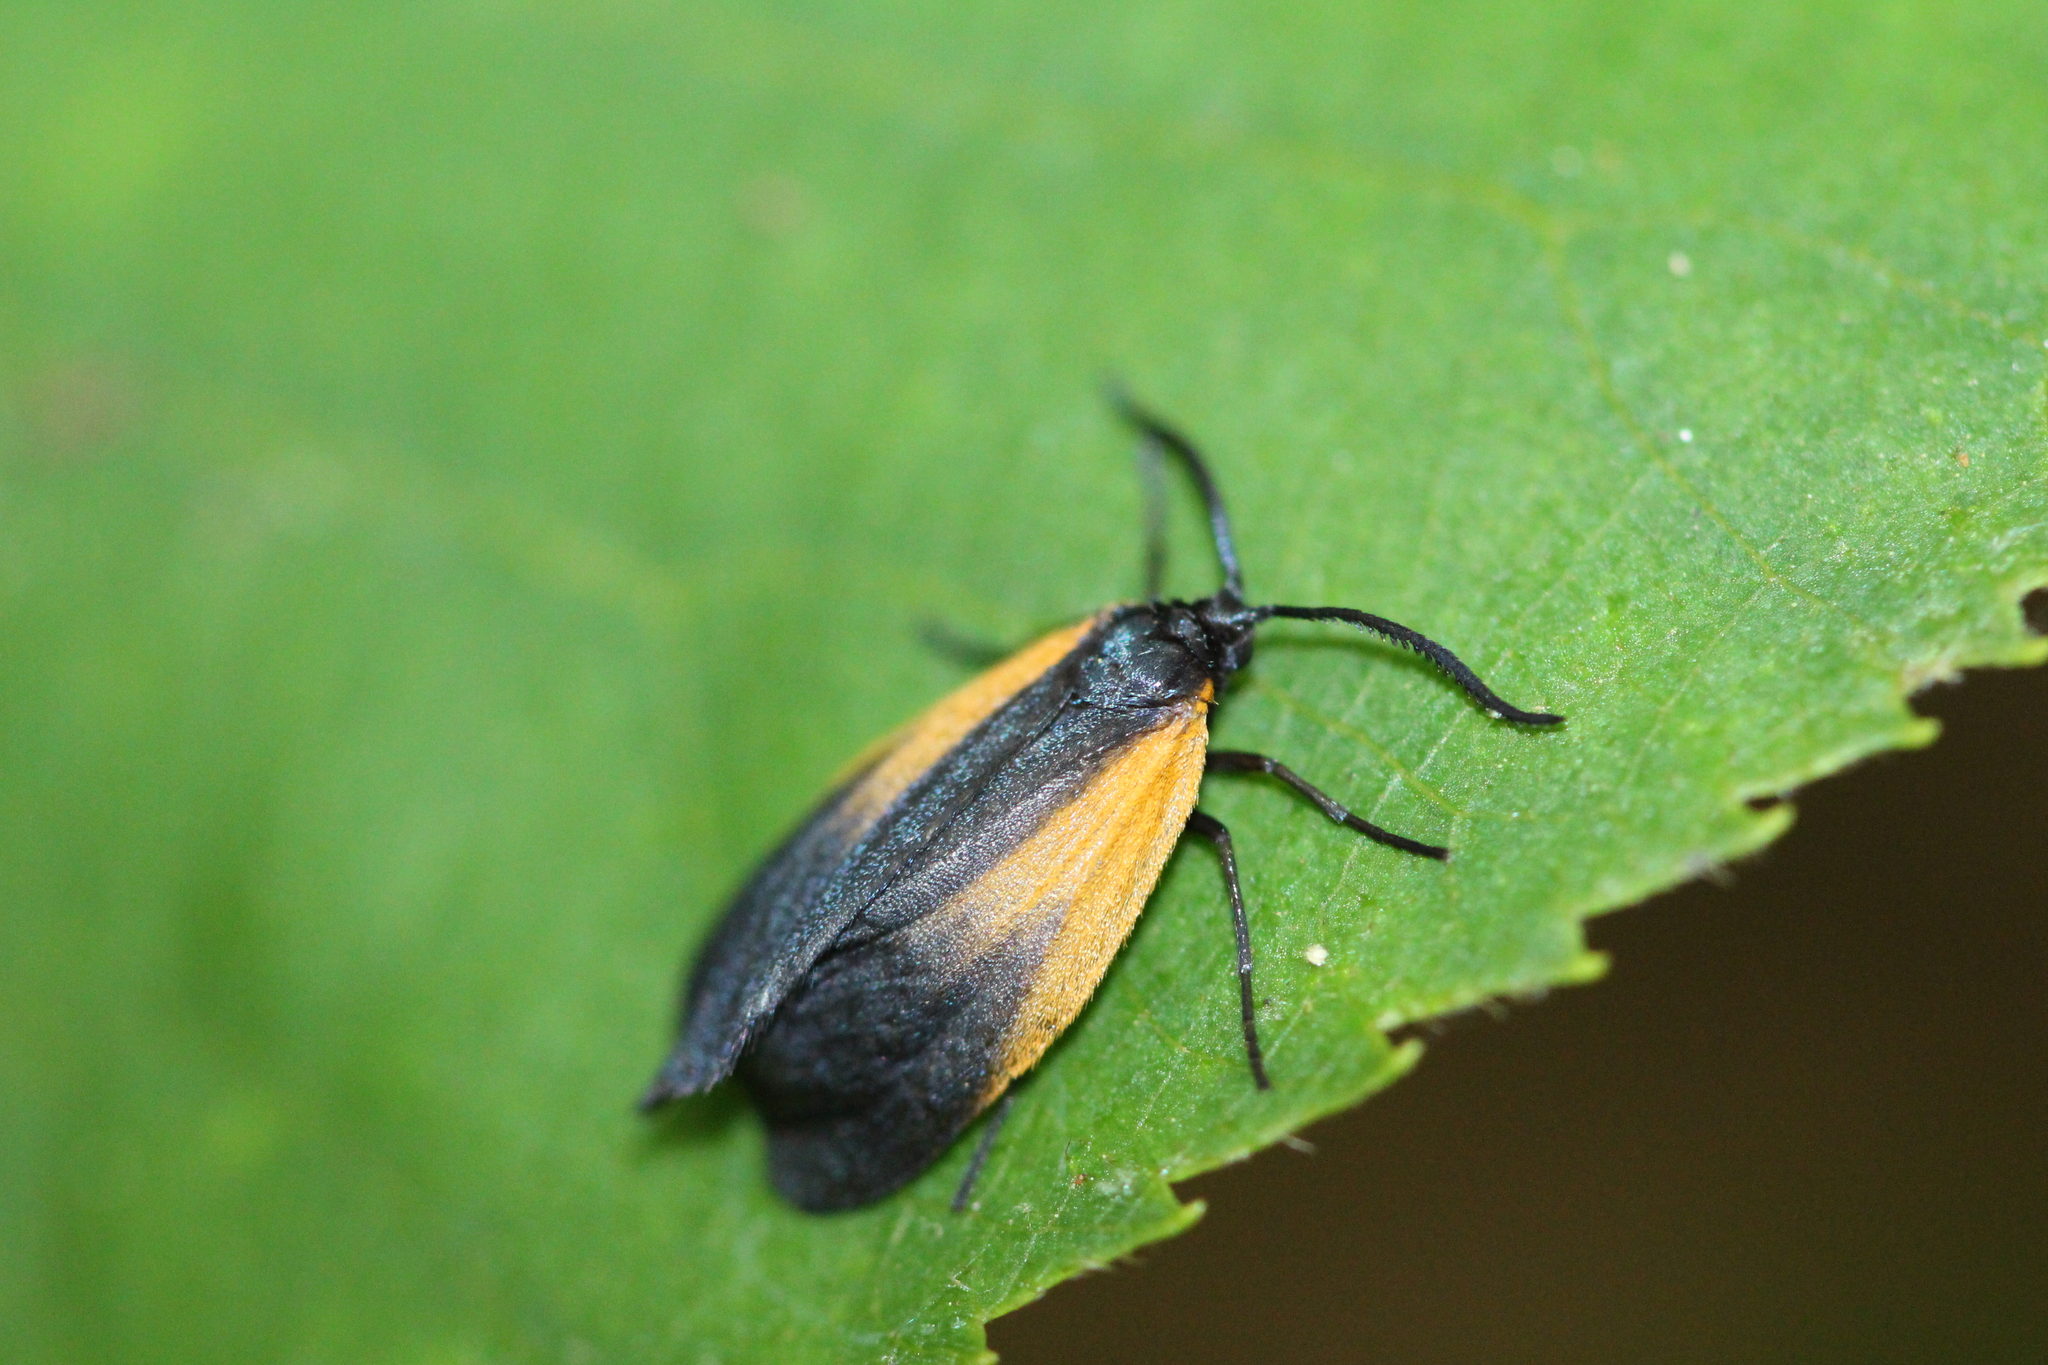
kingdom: Animalia
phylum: Arthropoda
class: Insecta
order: Lepidoptera
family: Zygaenidae
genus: Malthaca
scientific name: Malthaca dimidiata
